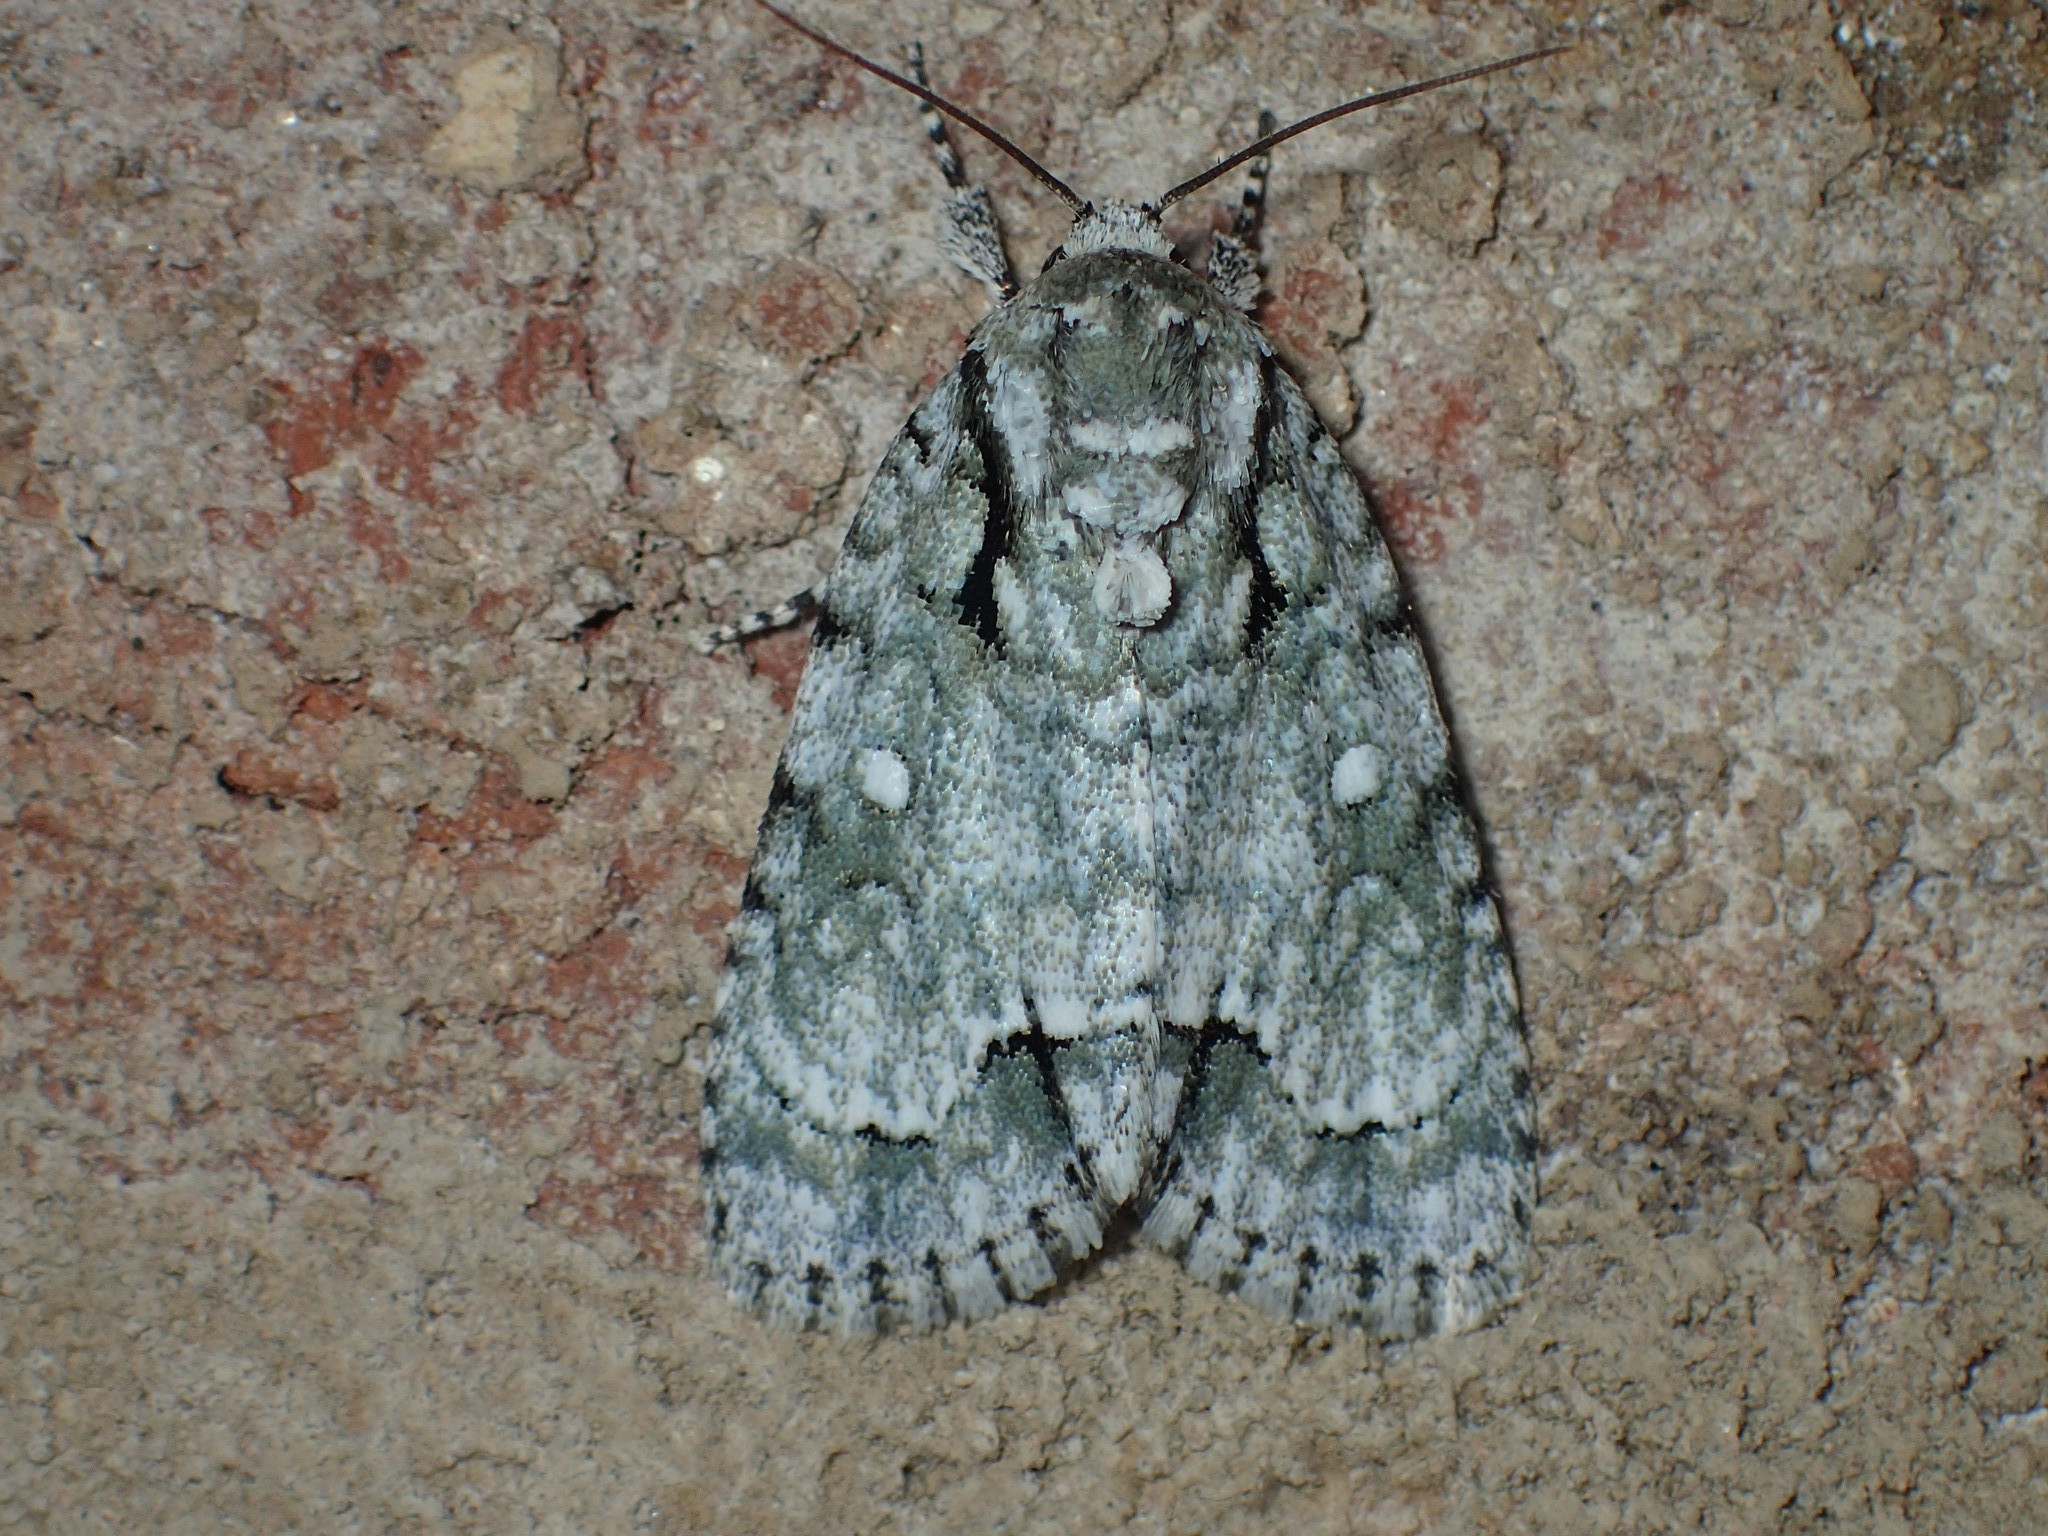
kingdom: Animalia
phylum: Arthropoda
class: Insecta
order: Lepidoptera
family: Noctuidae
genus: Acronicta
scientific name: Acronicta vinnula
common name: Delightful dagger
